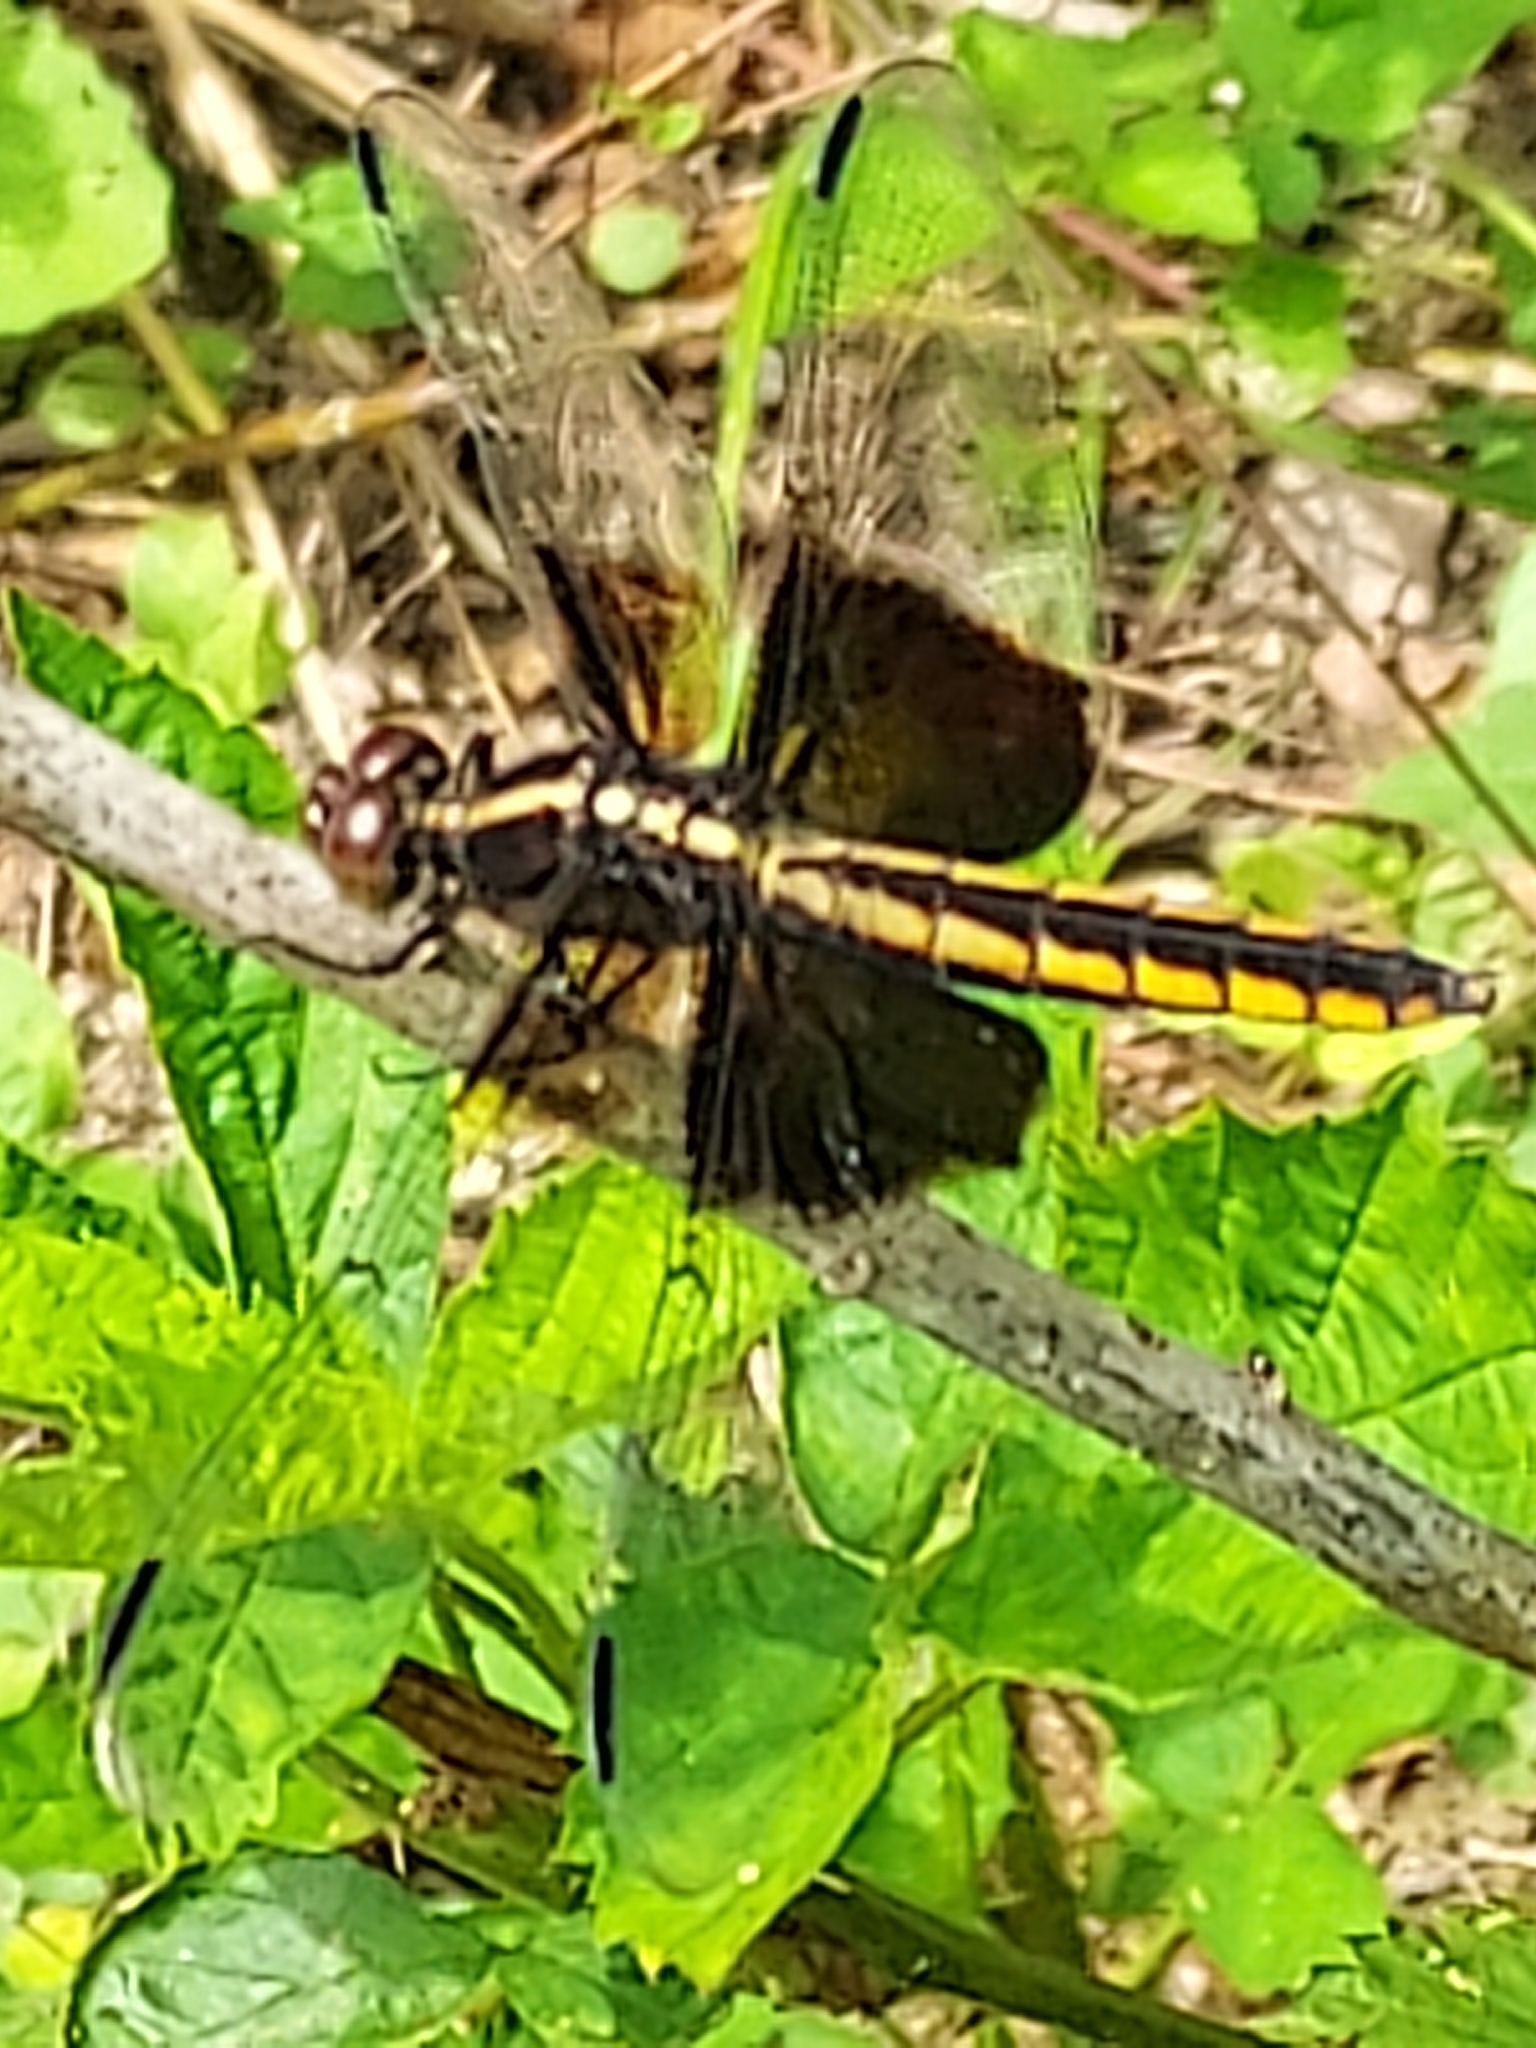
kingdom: Animalia
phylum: Arthropoda
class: Insecta
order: Odonata
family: Libellulidae
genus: Libellula
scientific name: Libellula luctuosa
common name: Widow skimmer
